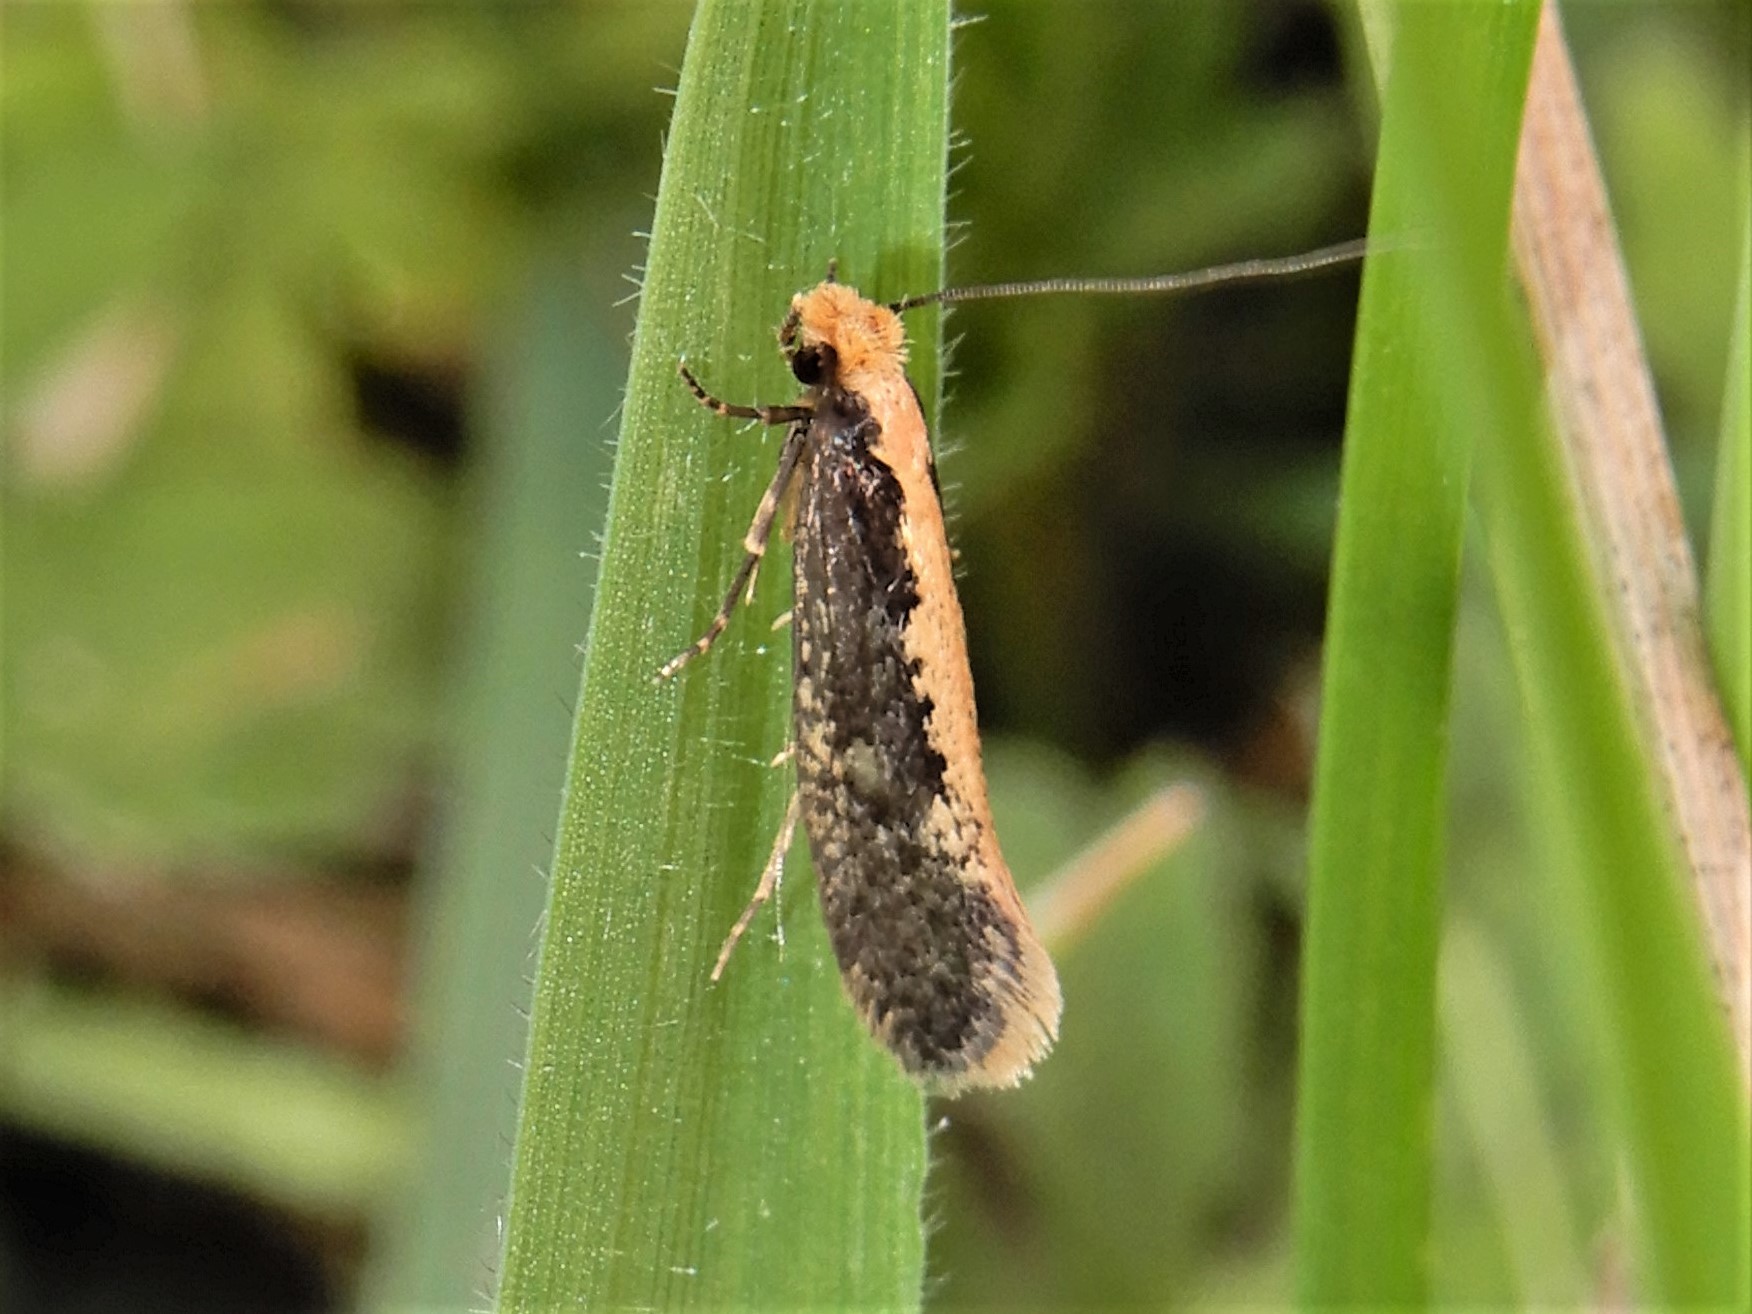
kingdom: Animalia
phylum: Arthropoda
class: Insecta
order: Lepidoptera
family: Tineidae
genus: Monopis
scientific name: Monopis crocicapitella
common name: Moth
